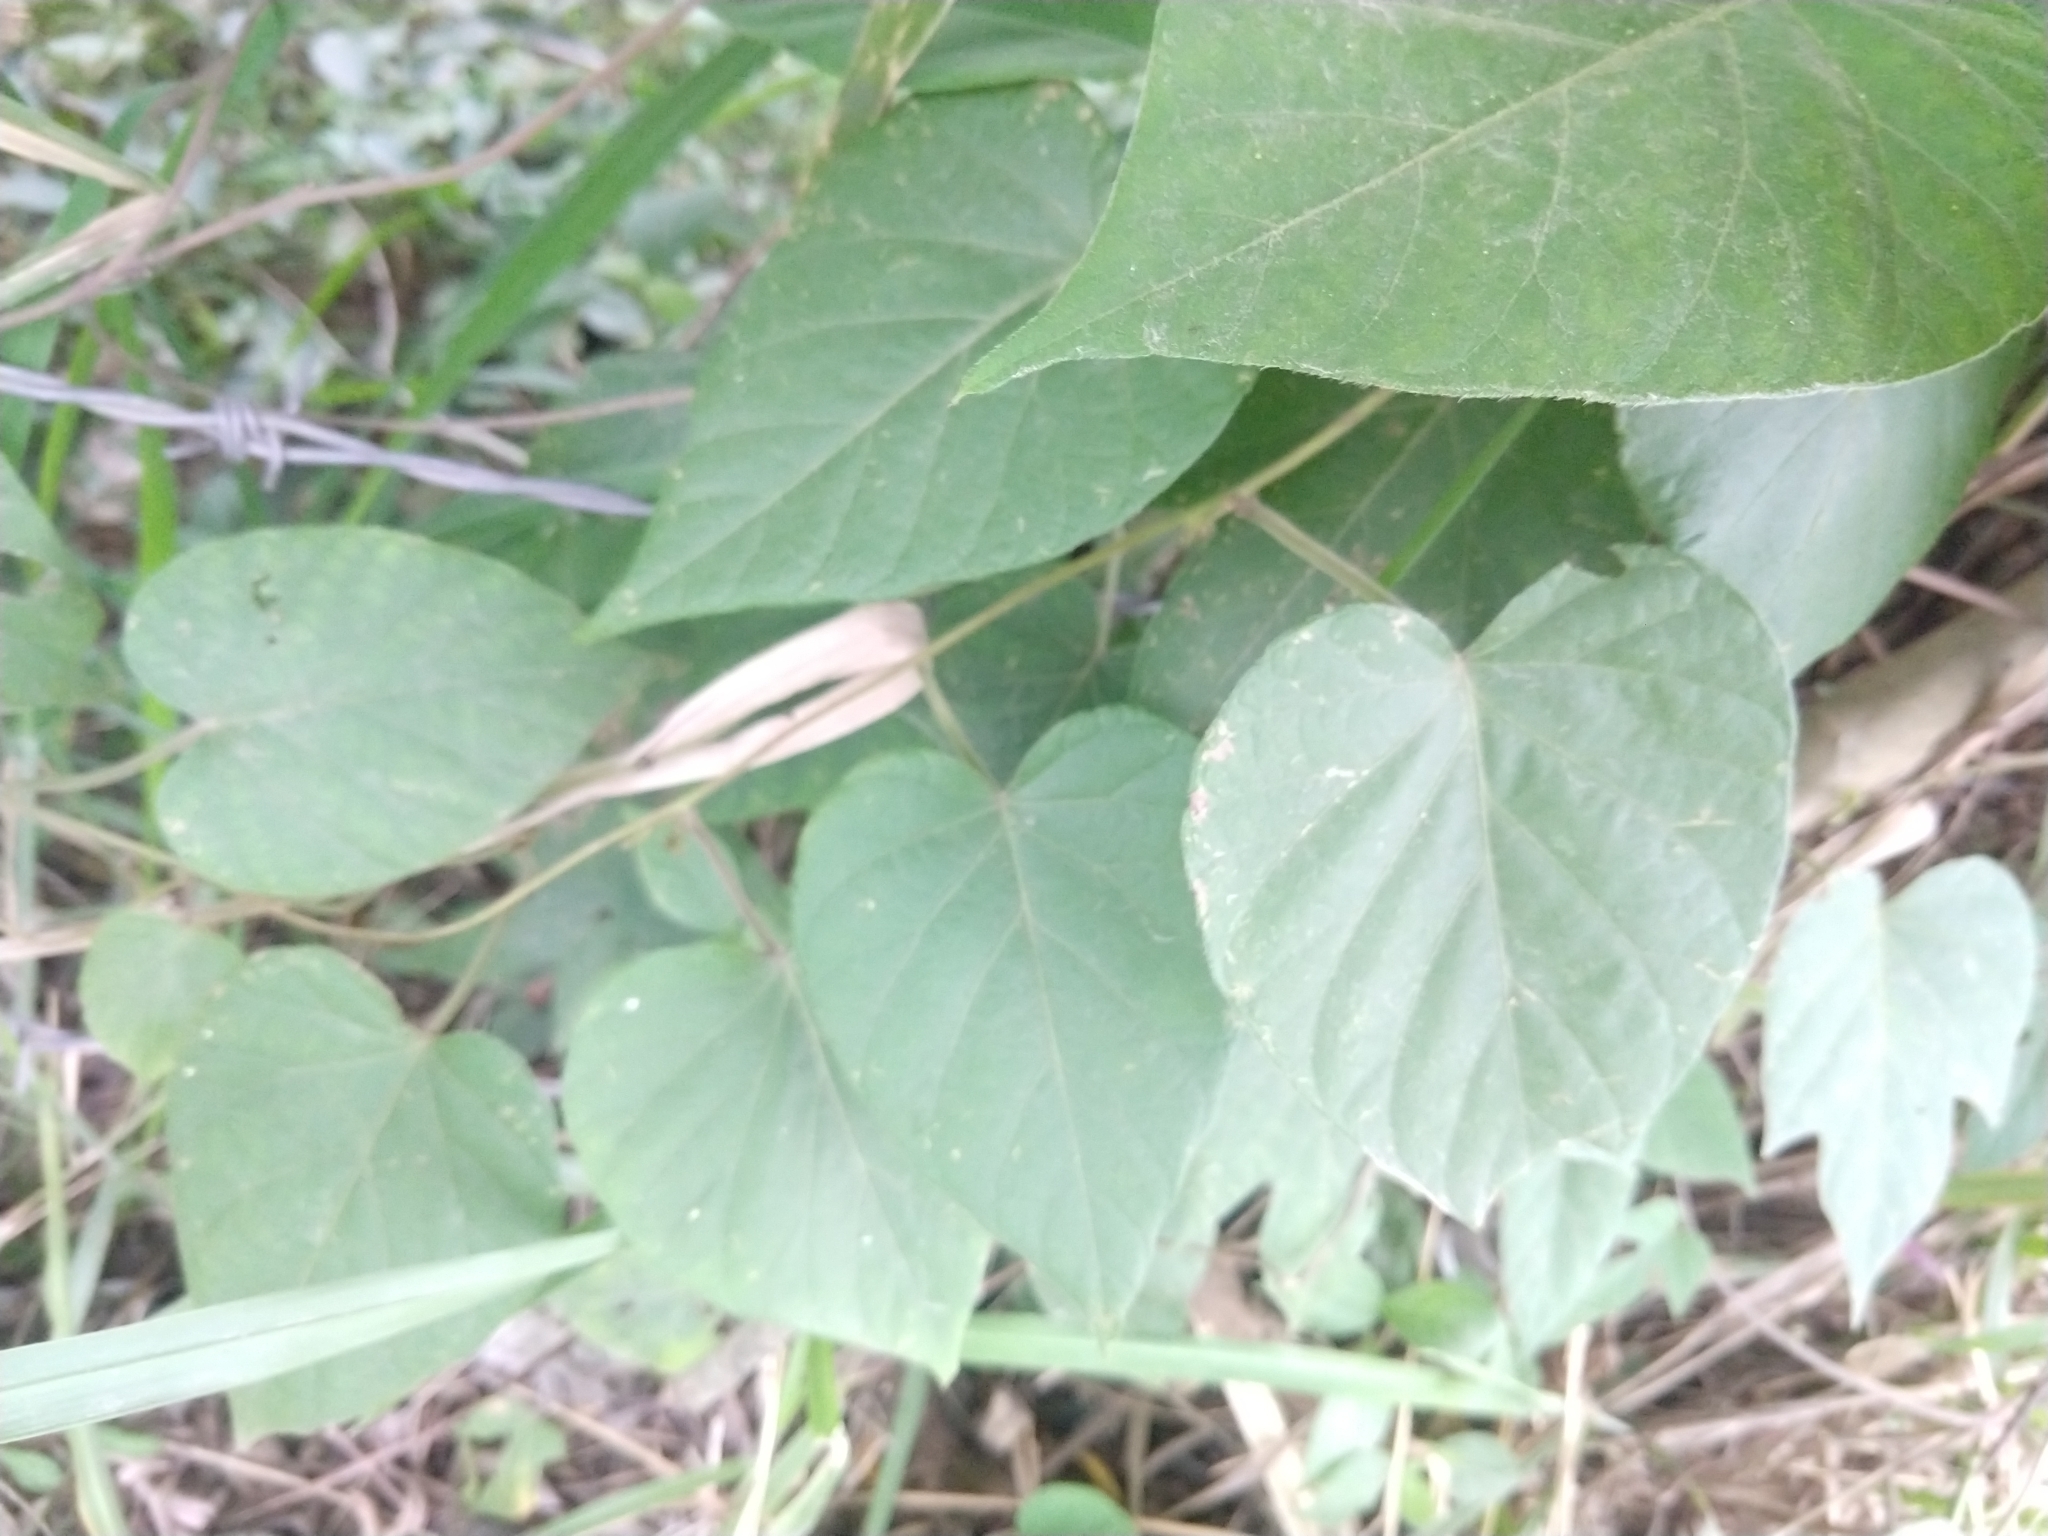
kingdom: Plantae
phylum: Tracheophyta
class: Magnoliopsida
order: Solanales
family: Convolvulaceae
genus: Ipomoea
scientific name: Ipomoea silvicola
